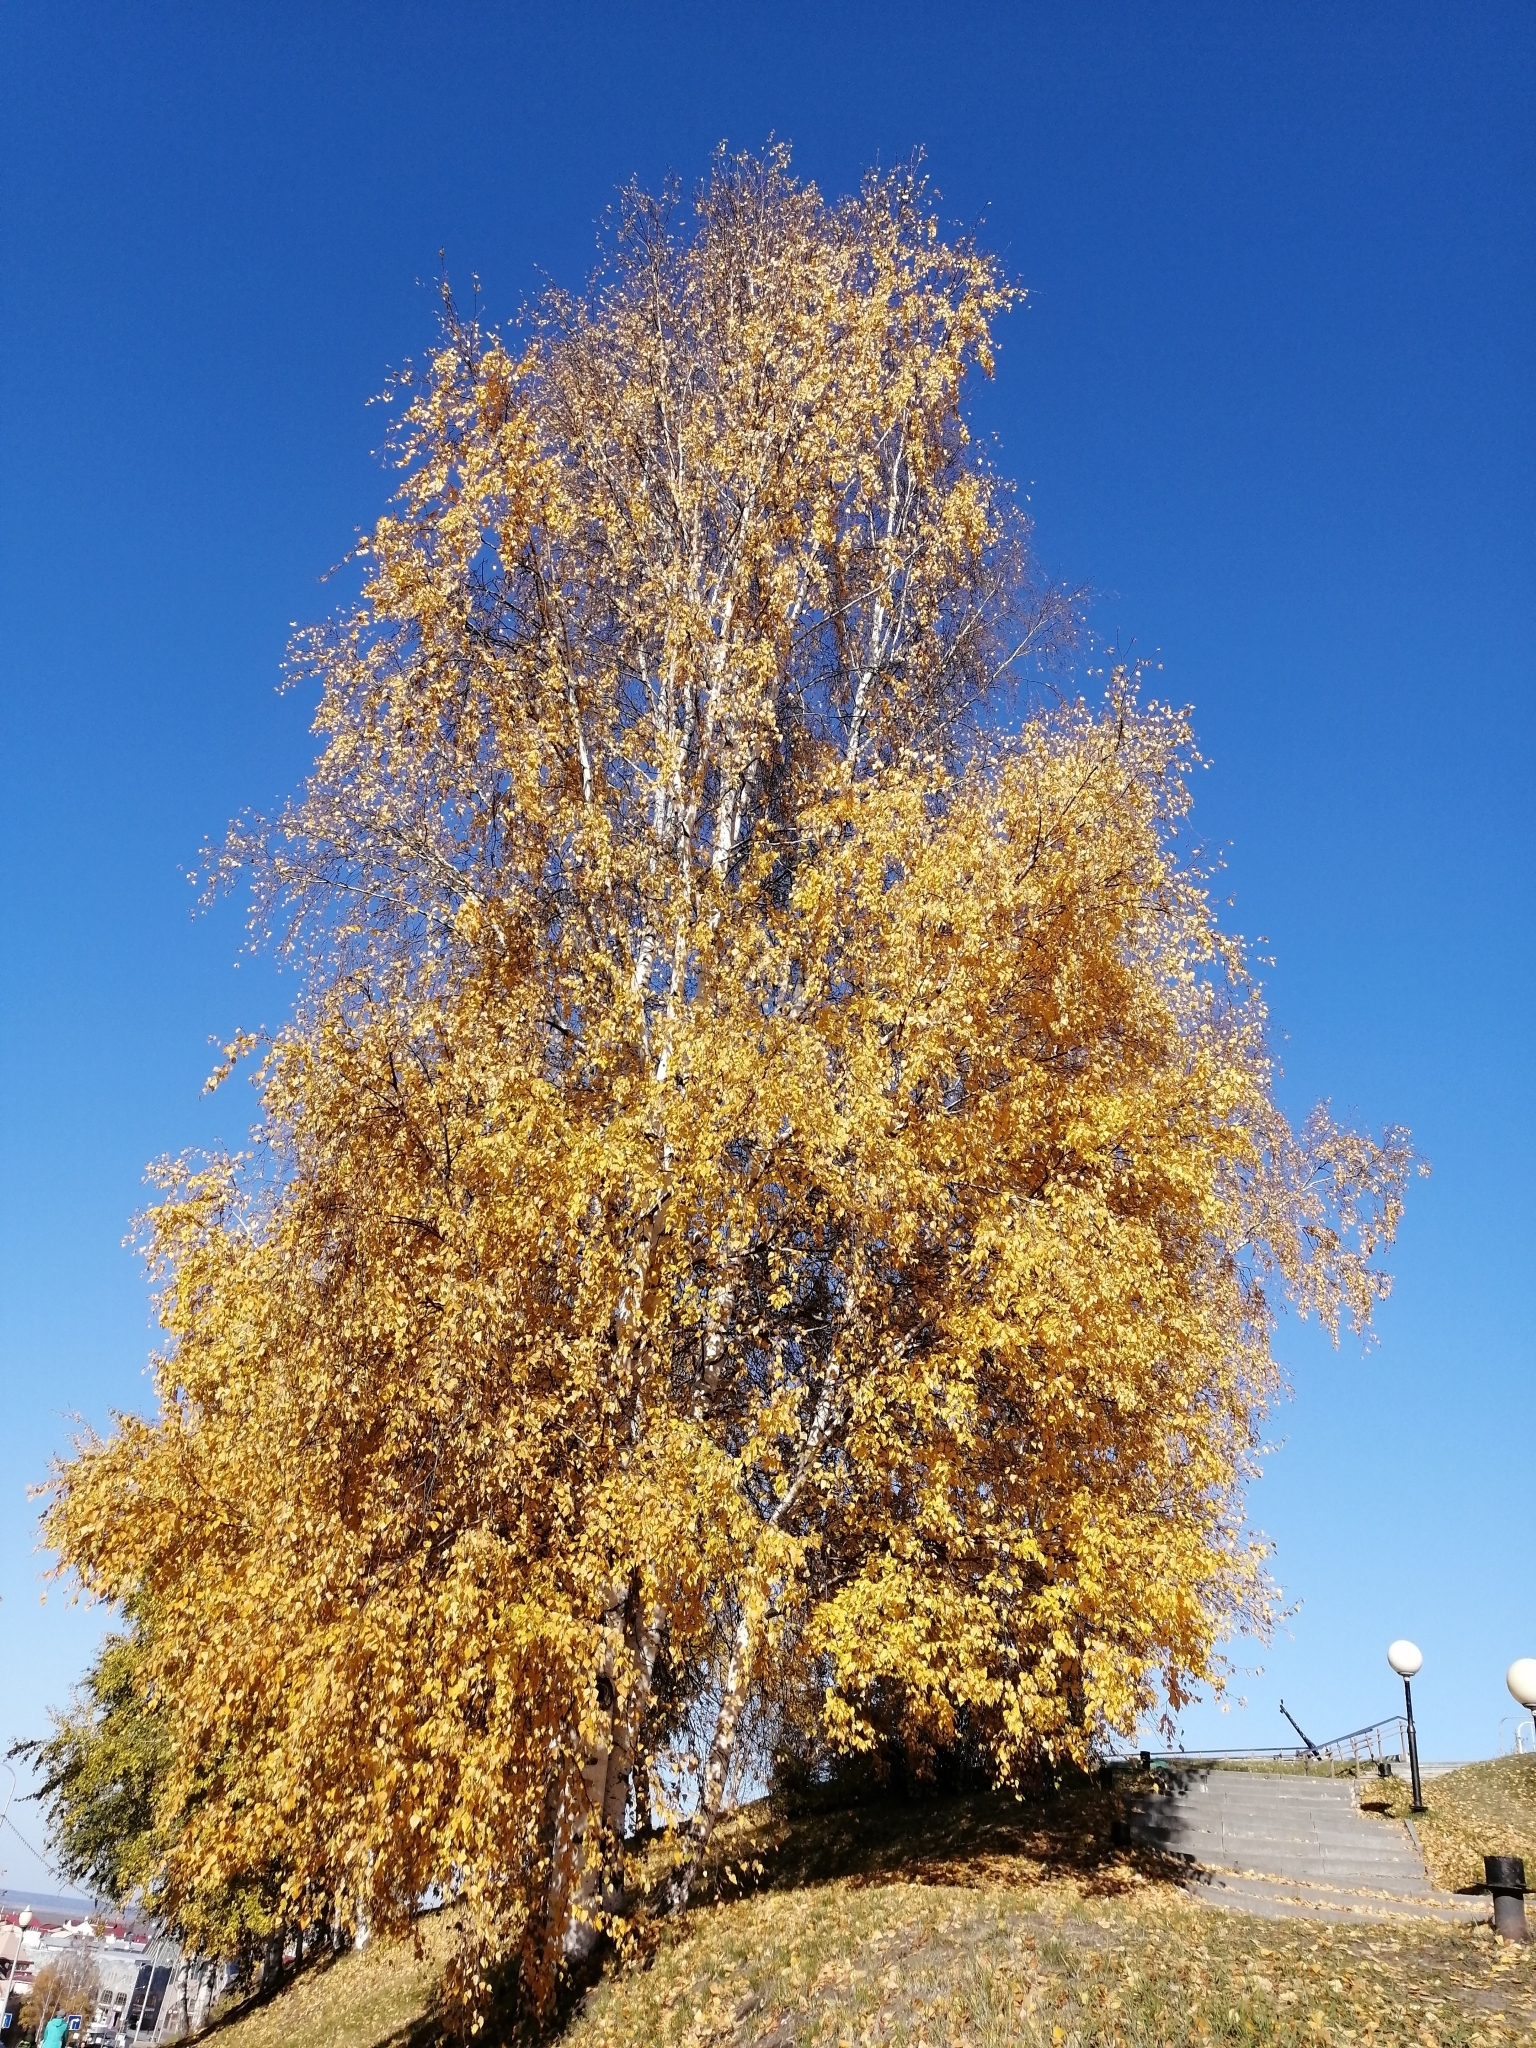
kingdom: Plantae
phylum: Tracheophyta
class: Magnoliopsida
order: Fagales
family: Betulaceae
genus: Betula
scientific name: Betula pendula
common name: Silver birch
